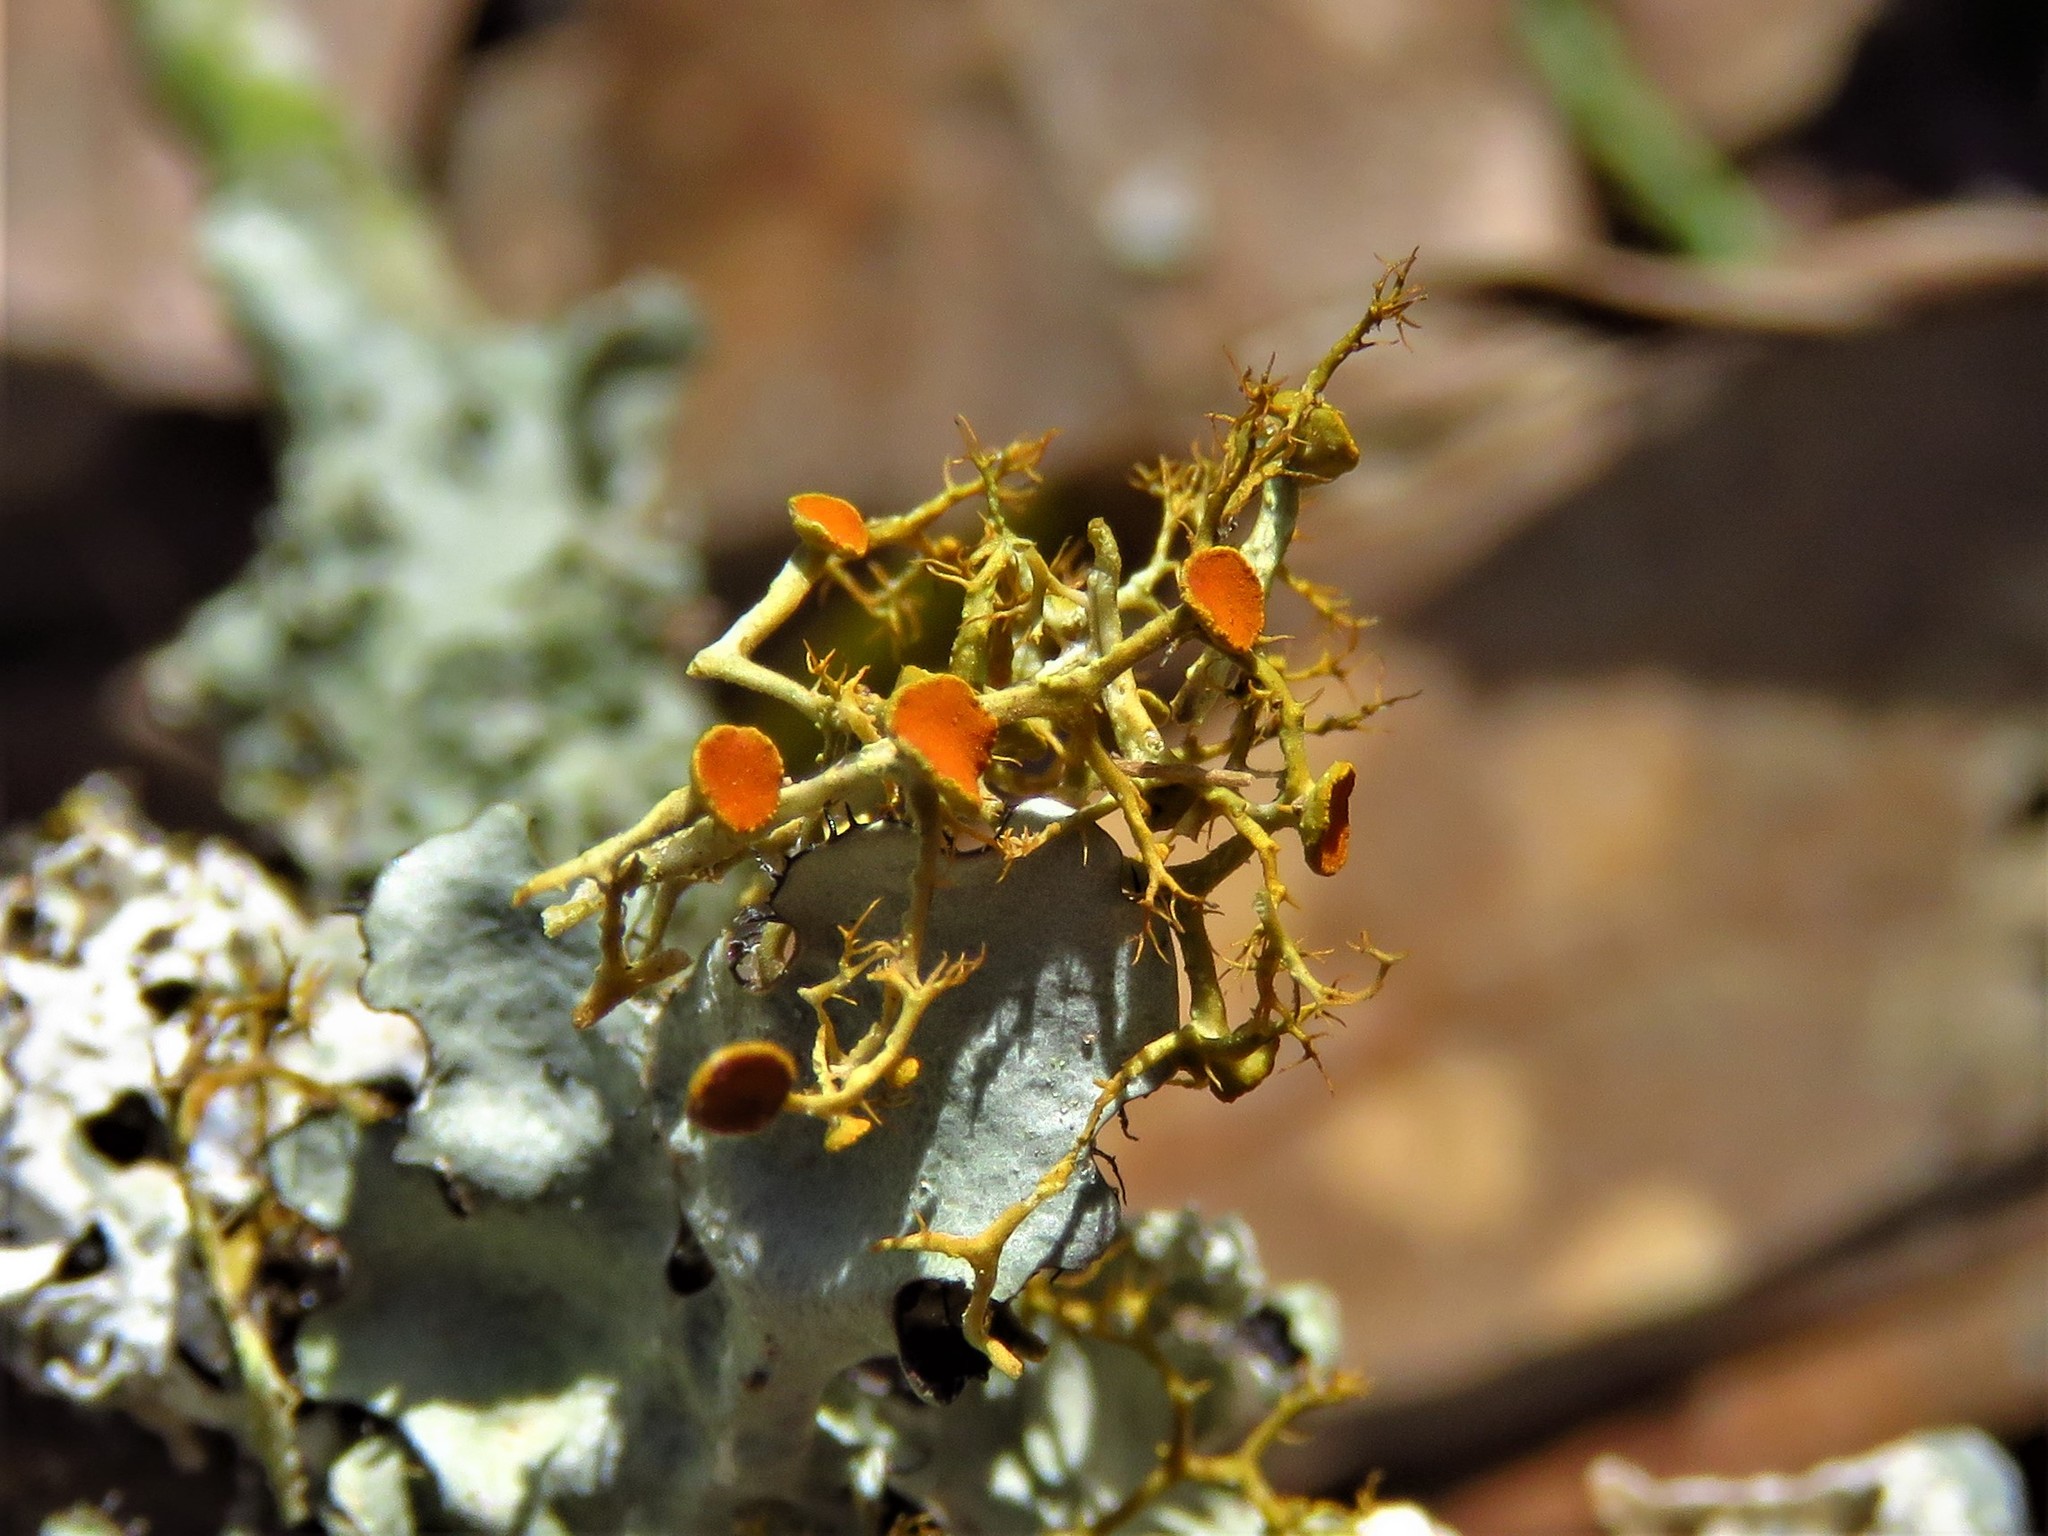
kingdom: Fungi
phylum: Ascomycota
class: Lecanoromycetes
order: Teloschistales
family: Teloschistaceae
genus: Teloschistes
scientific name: Teloschistes exilis
